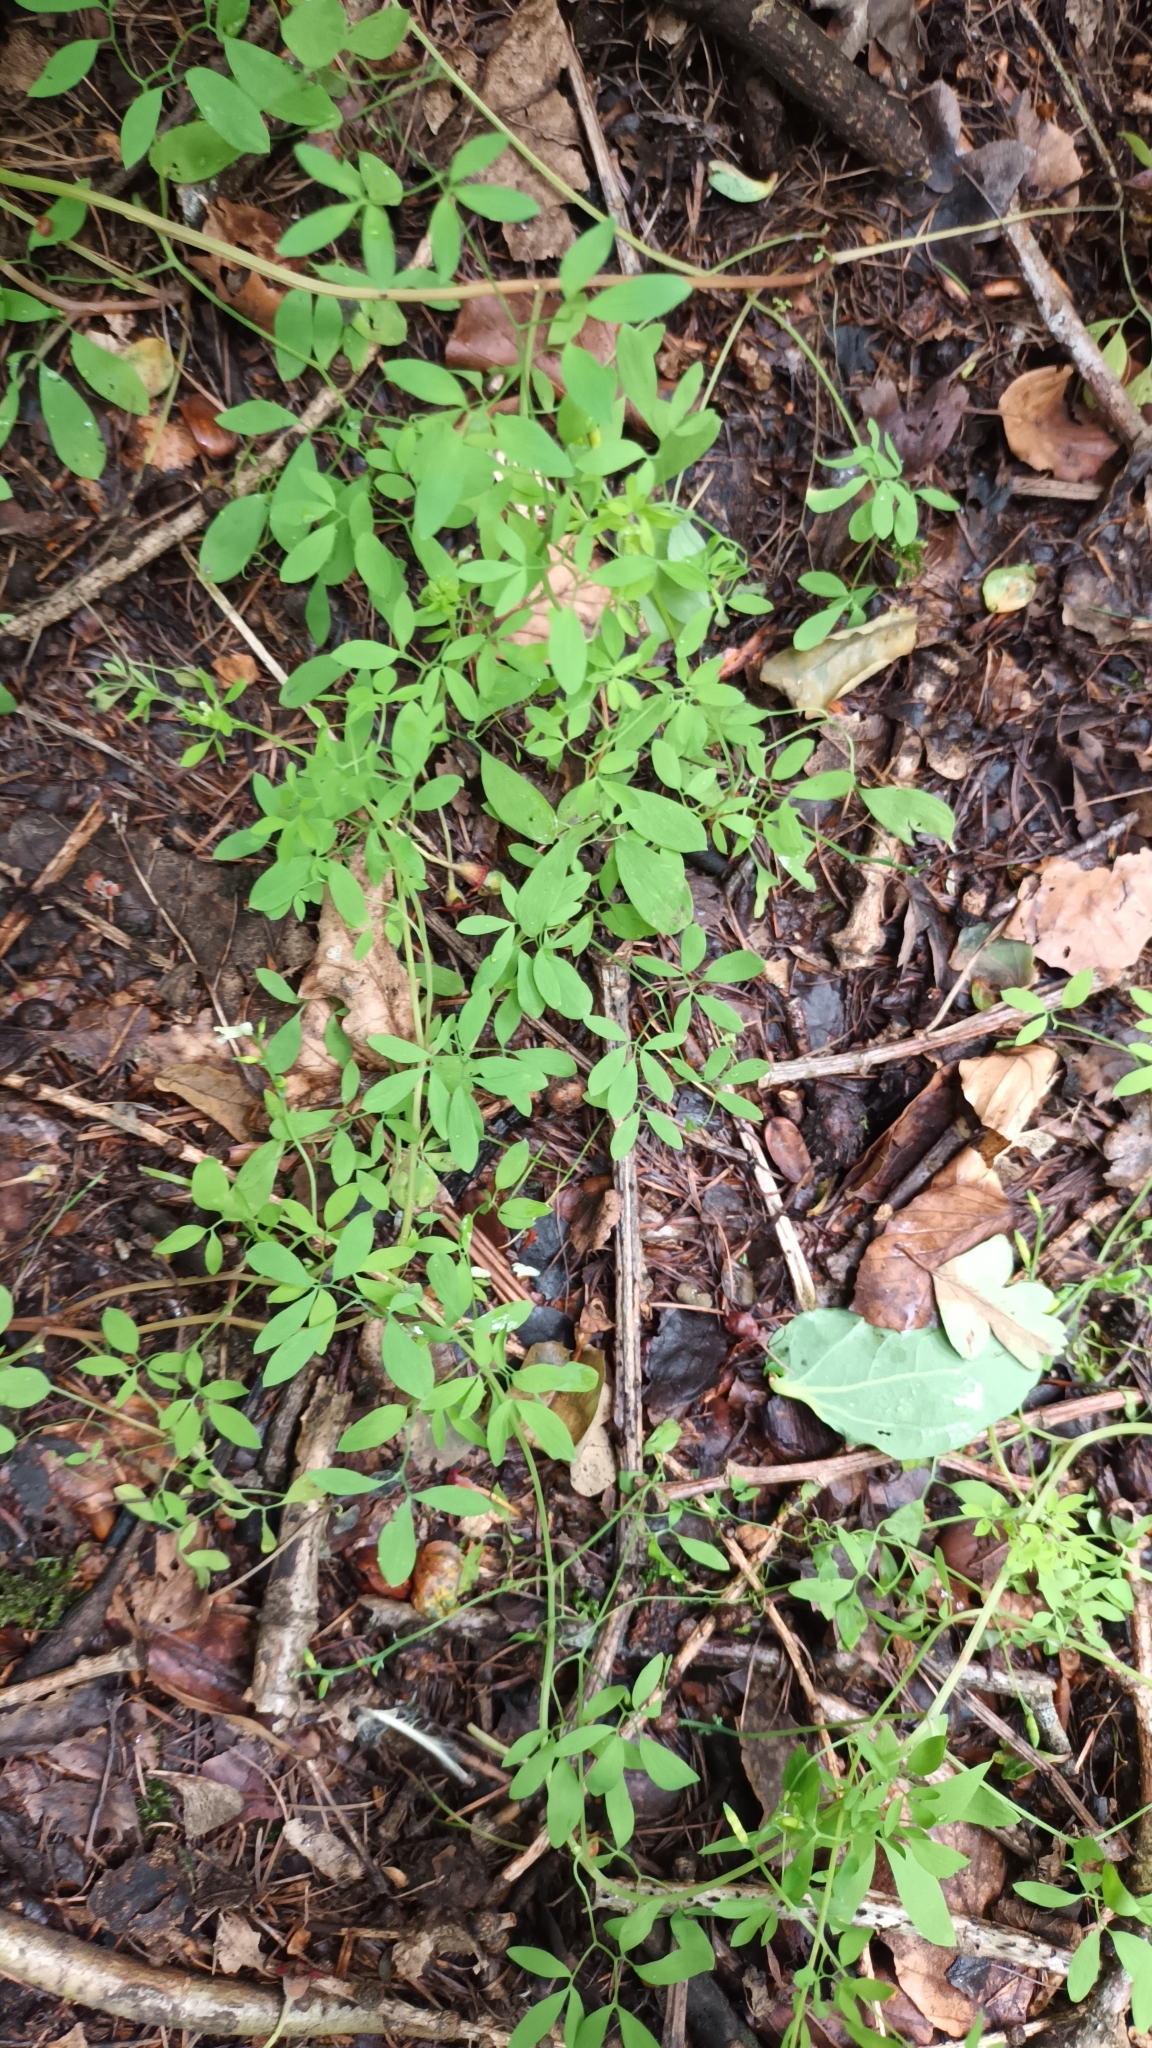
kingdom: Plantae
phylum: Tracheophyta
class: Magnoliopsida
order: Ranunculales
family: Papaveraceae
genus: Ceratocapnos
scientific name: Ceratocapnos claviculata
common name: Climbing corydalis
